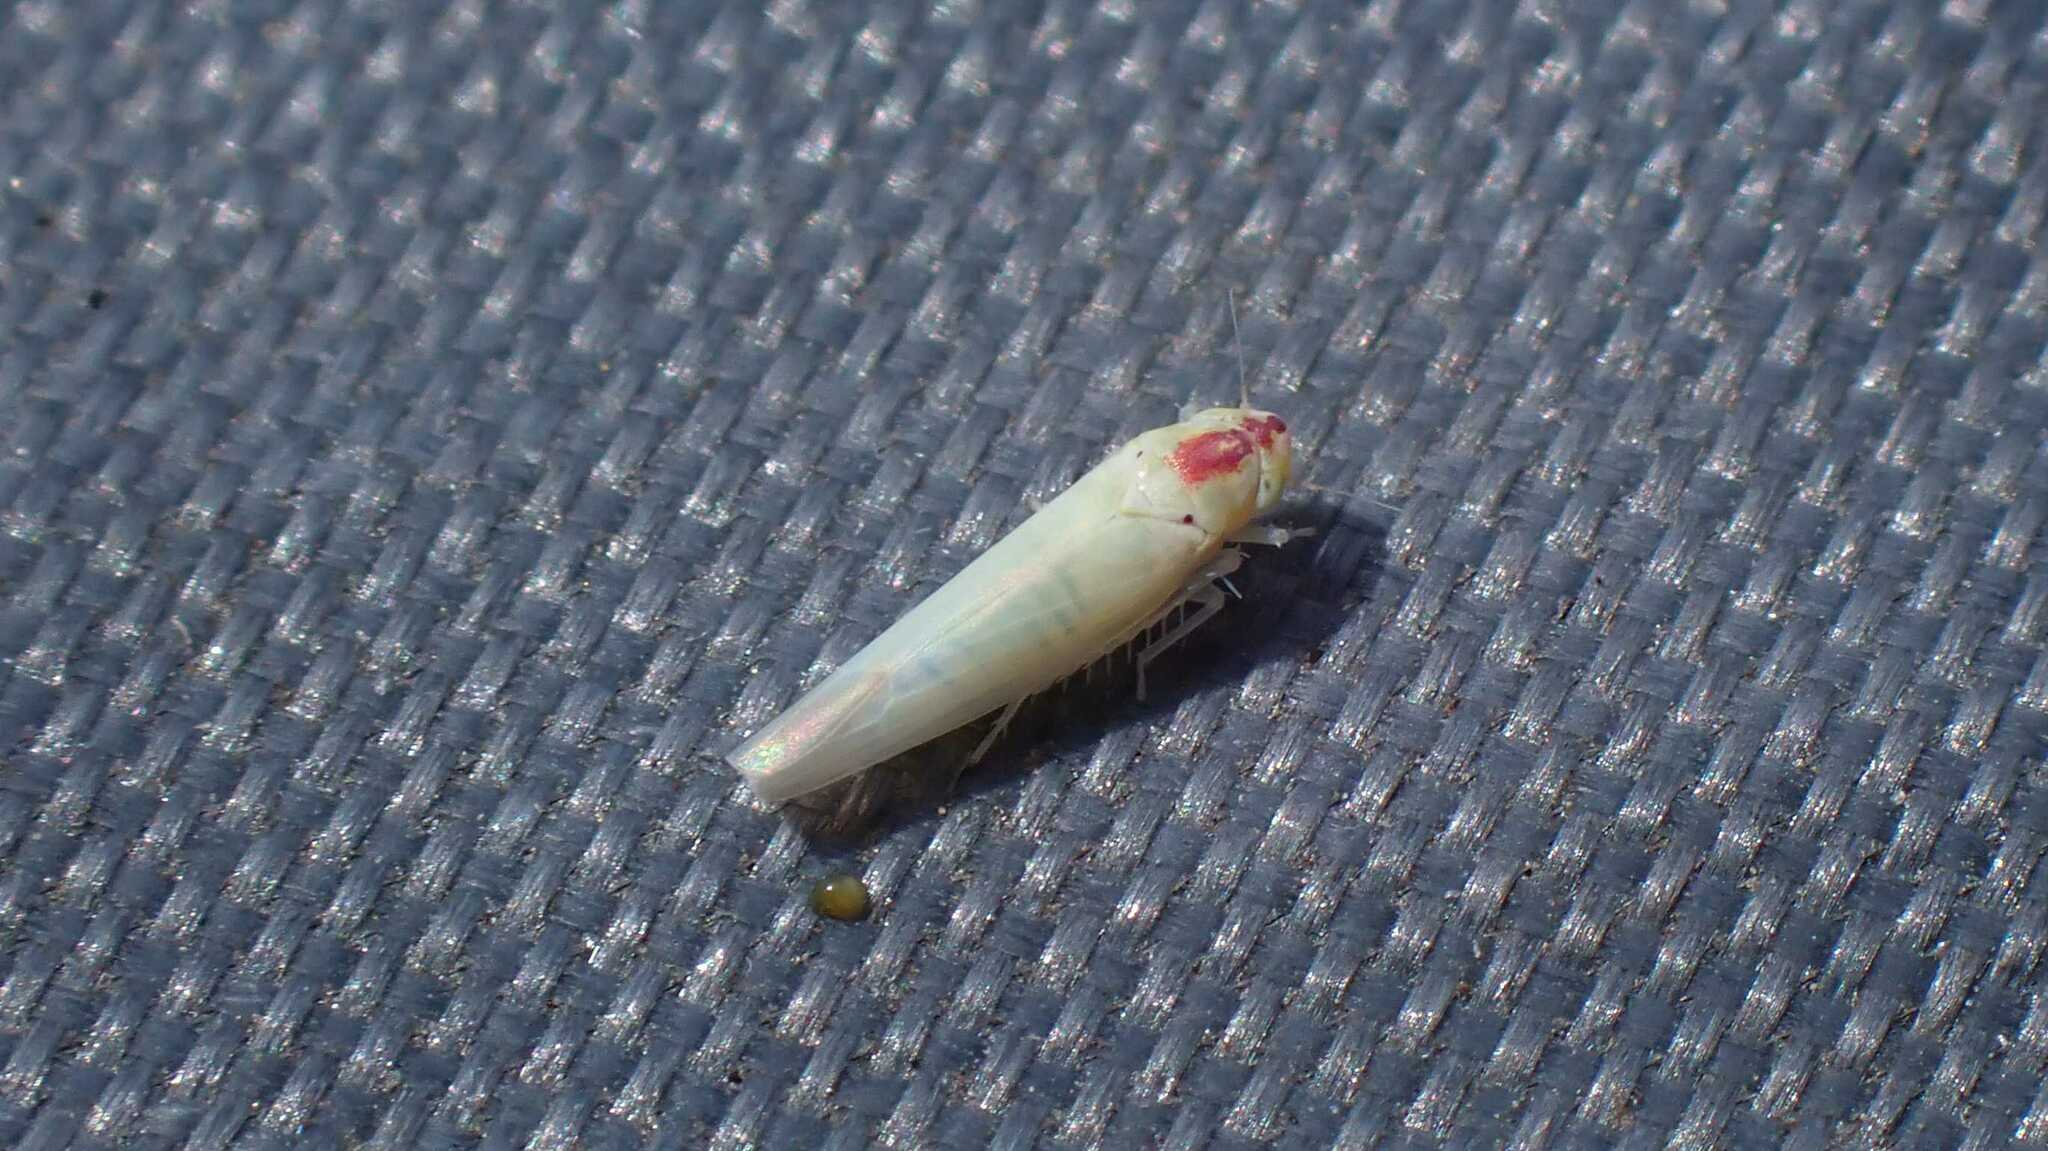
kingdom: Animalia
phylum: Arthropoda
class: Insecta
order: Hemiptera
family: Cicadellidae
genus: Zygina
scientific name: Zygina nivea
